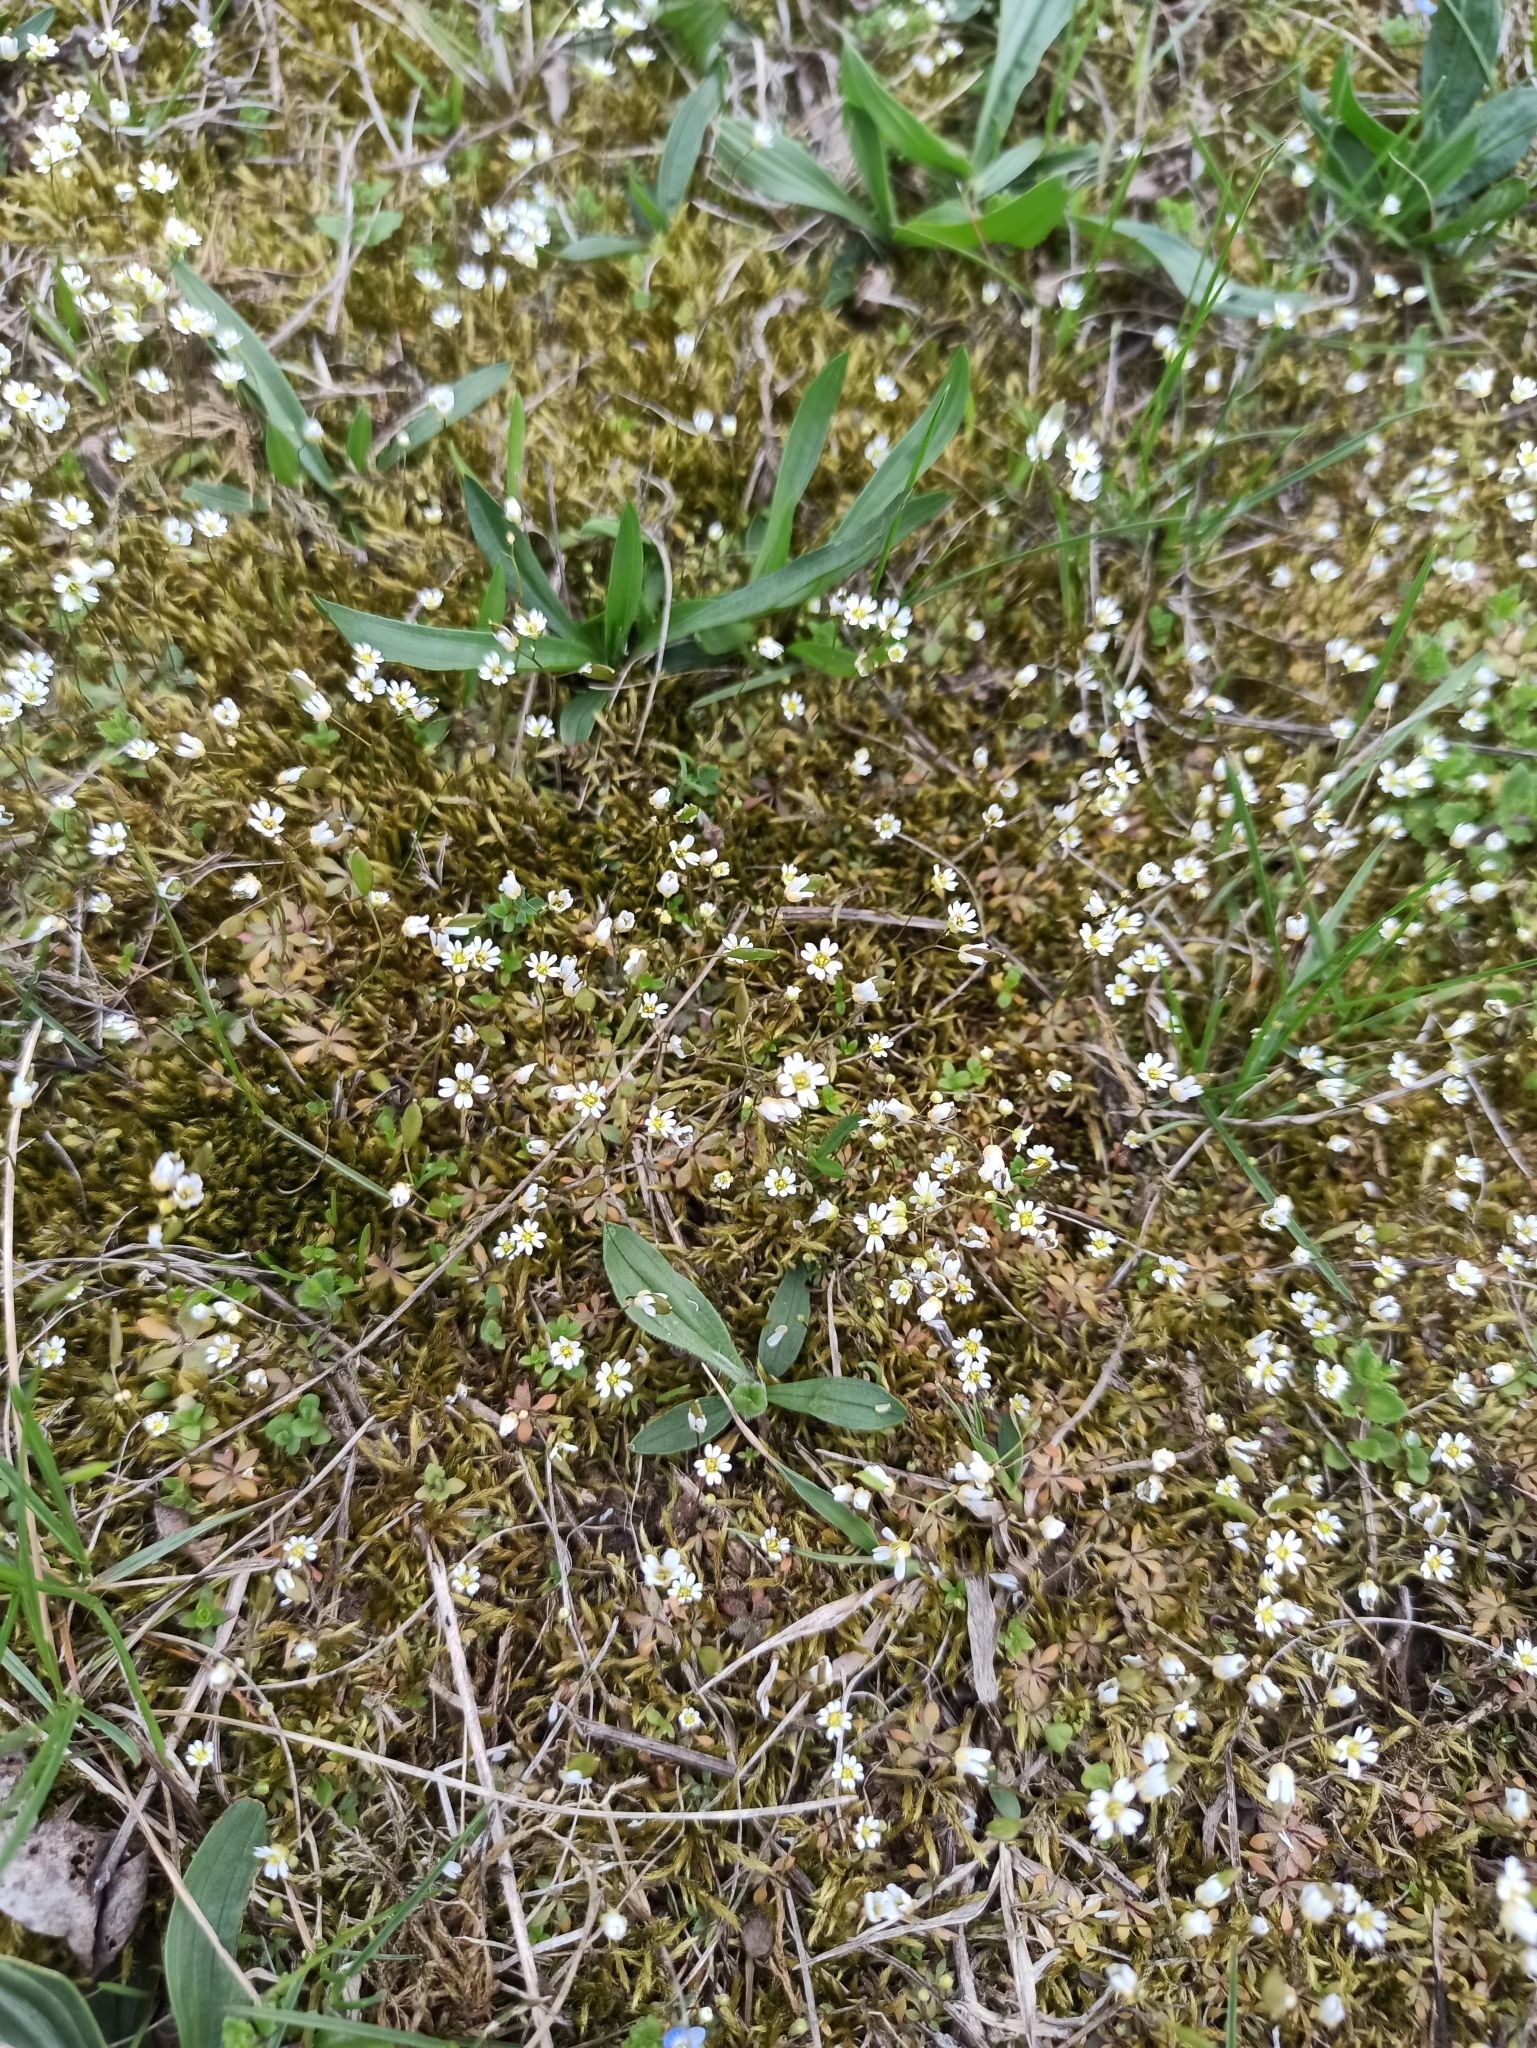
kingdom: Plantae
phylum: Tracheophyta
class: Magnoliopsida
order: Brassicales
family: Brassicaceae
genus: Draba
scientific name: Draba verna
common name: Spring draba
